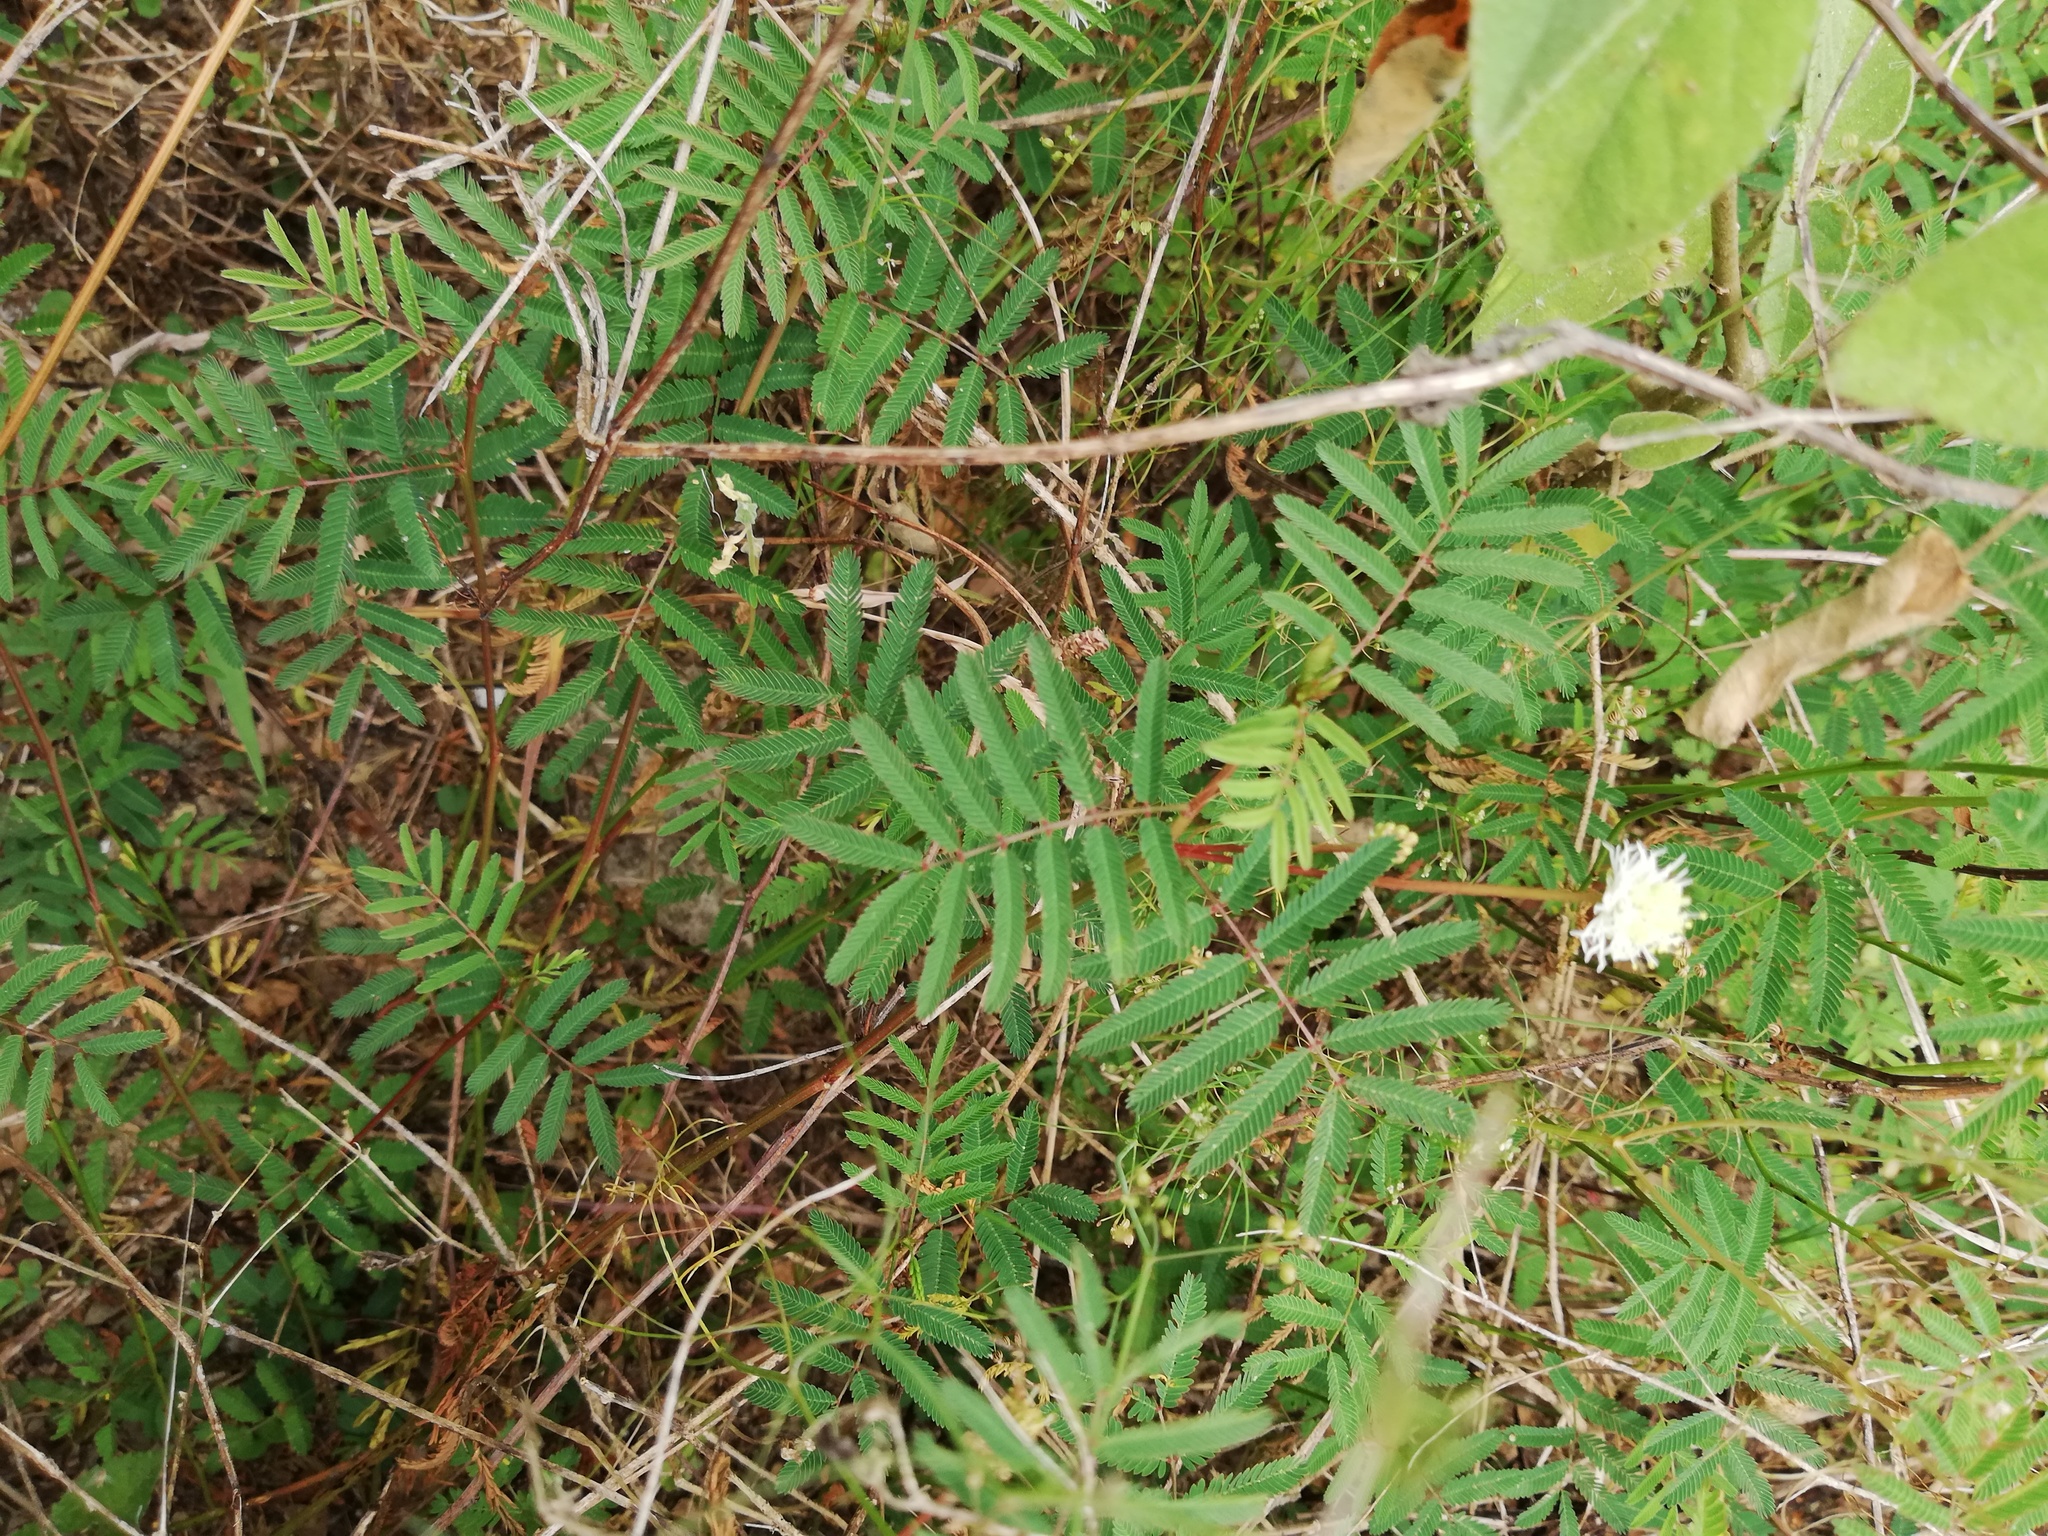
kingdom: Plantae
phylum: Tracheophyta
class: Magnoliopsida
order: Fabales
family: Fabaceae
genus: Desmanthus
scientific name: Desmanthus virgatus
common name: Wild tantan
